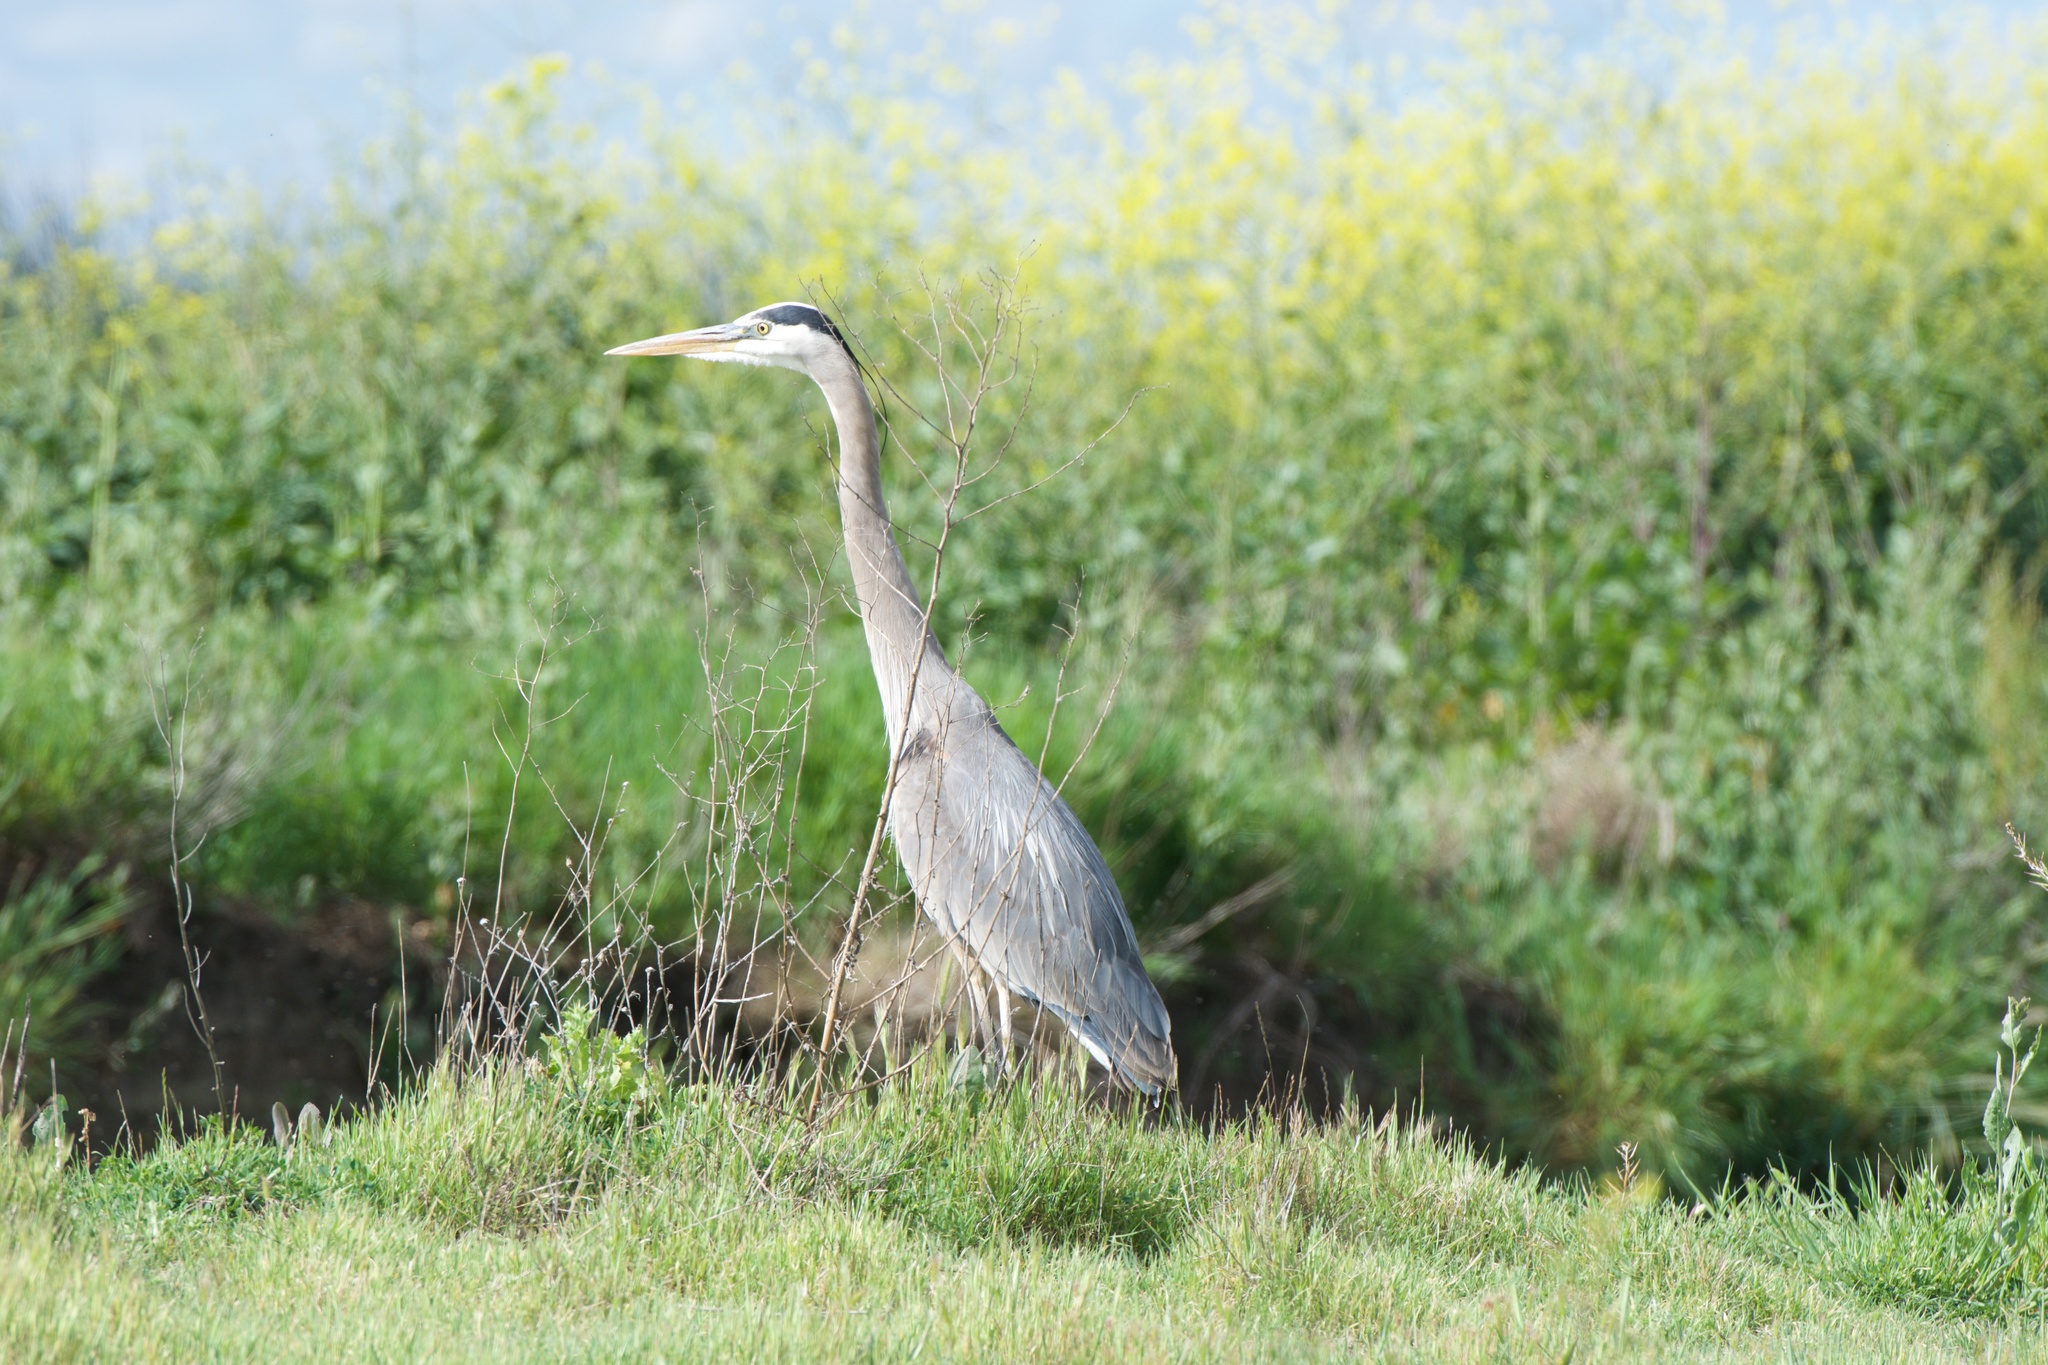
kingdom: Animalia
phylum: Chordata
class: Aves
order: Pelecaniformes
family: Ardeidae
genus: Ardea
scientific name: Ardea herodias
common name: Great blue heron
